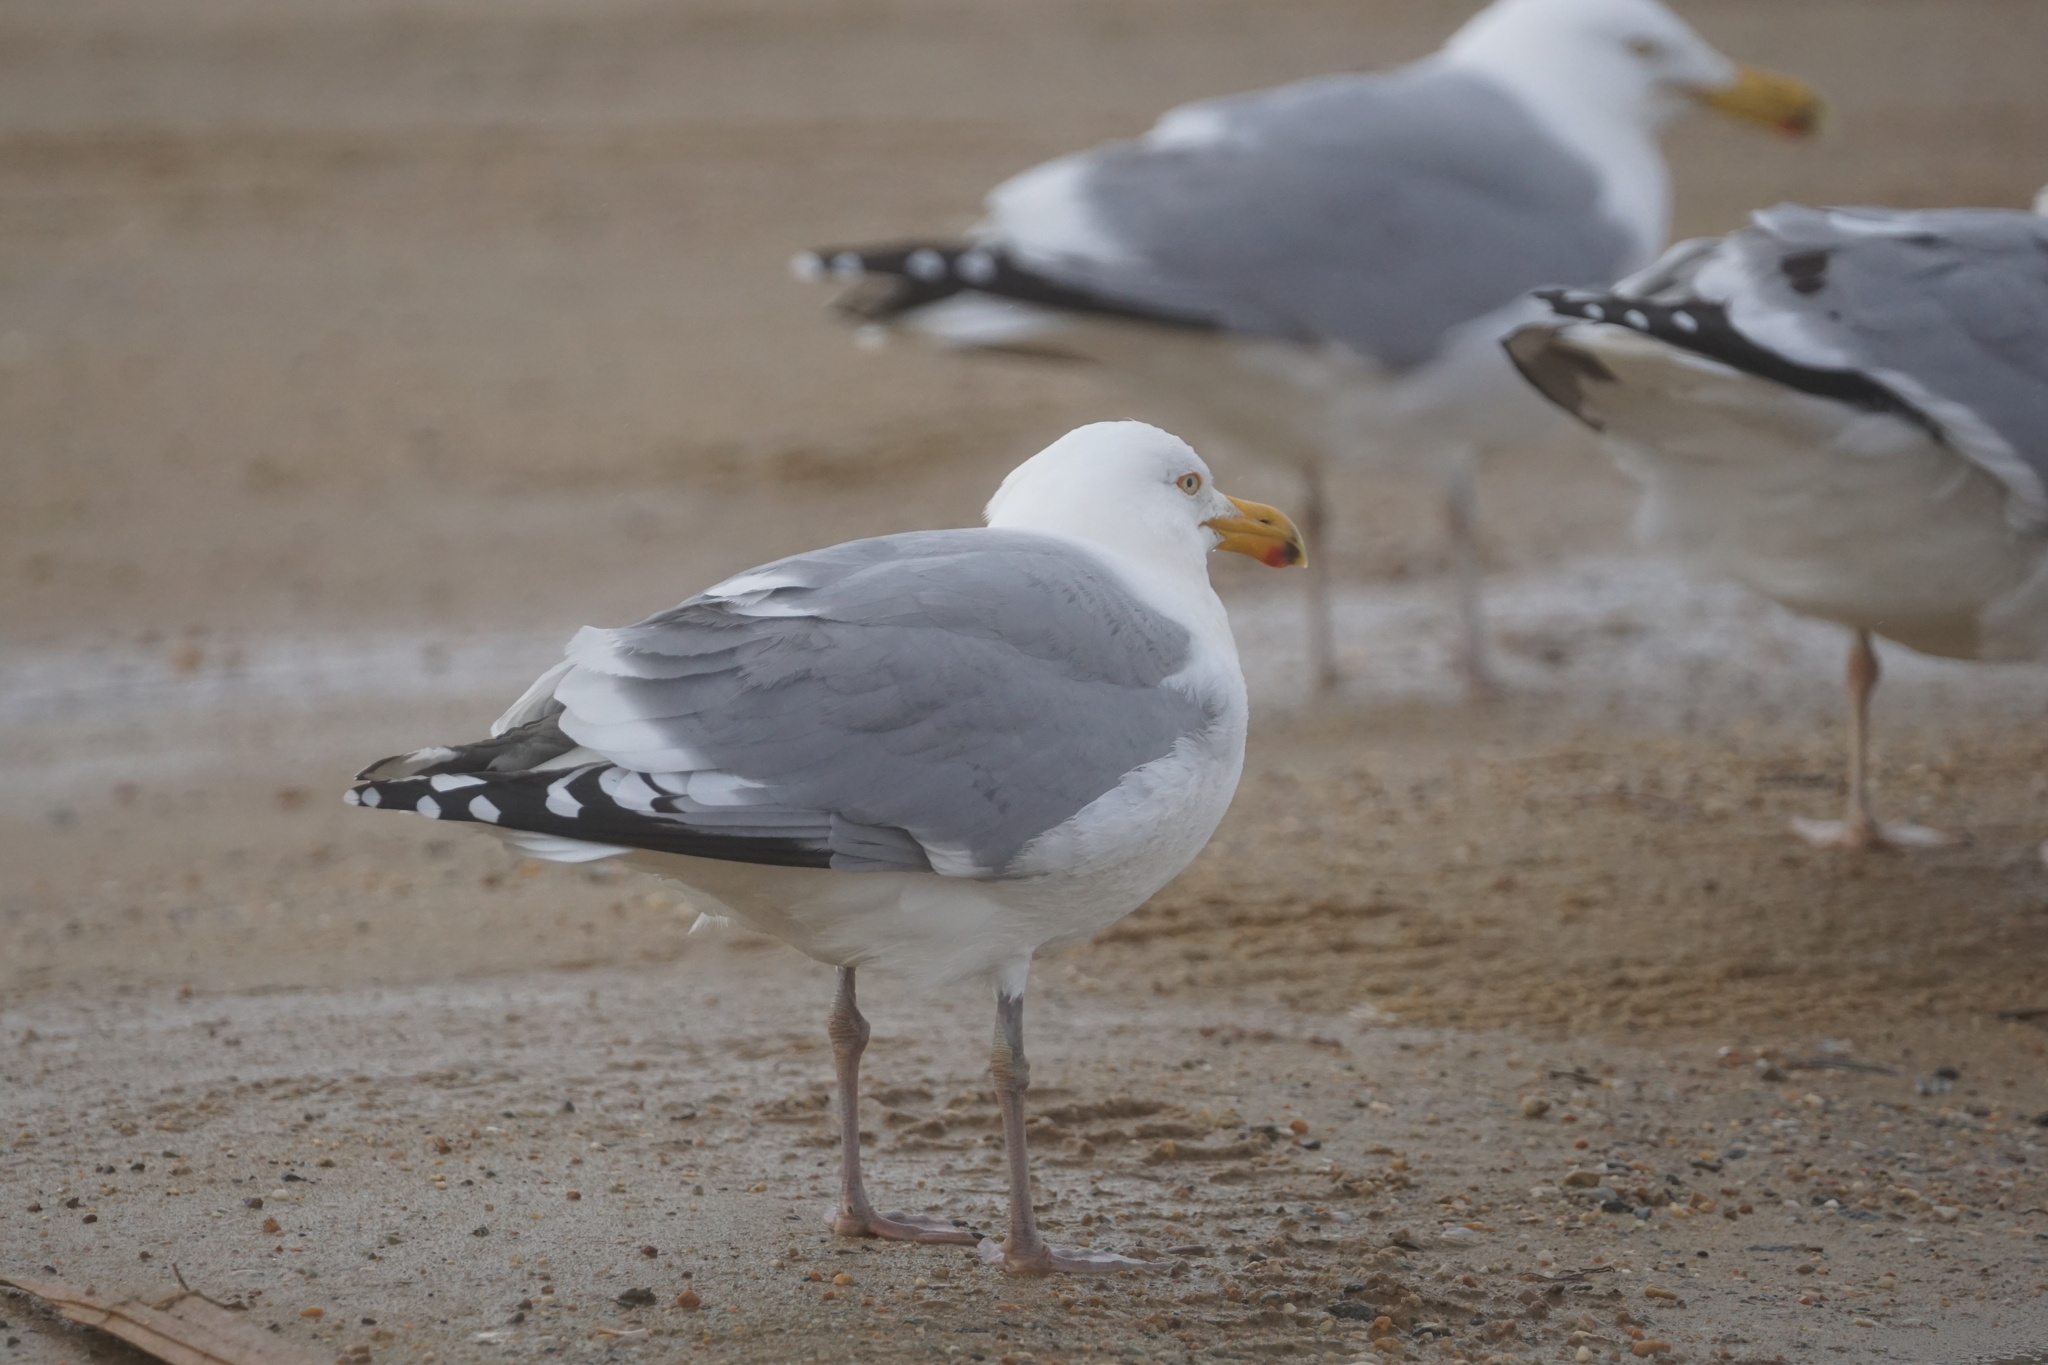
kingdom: Animalia
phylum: Chordata
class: Aves
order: Charadriiformes
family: Laridae
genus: Larus
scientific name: Larus argentatus
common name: Herring gull
